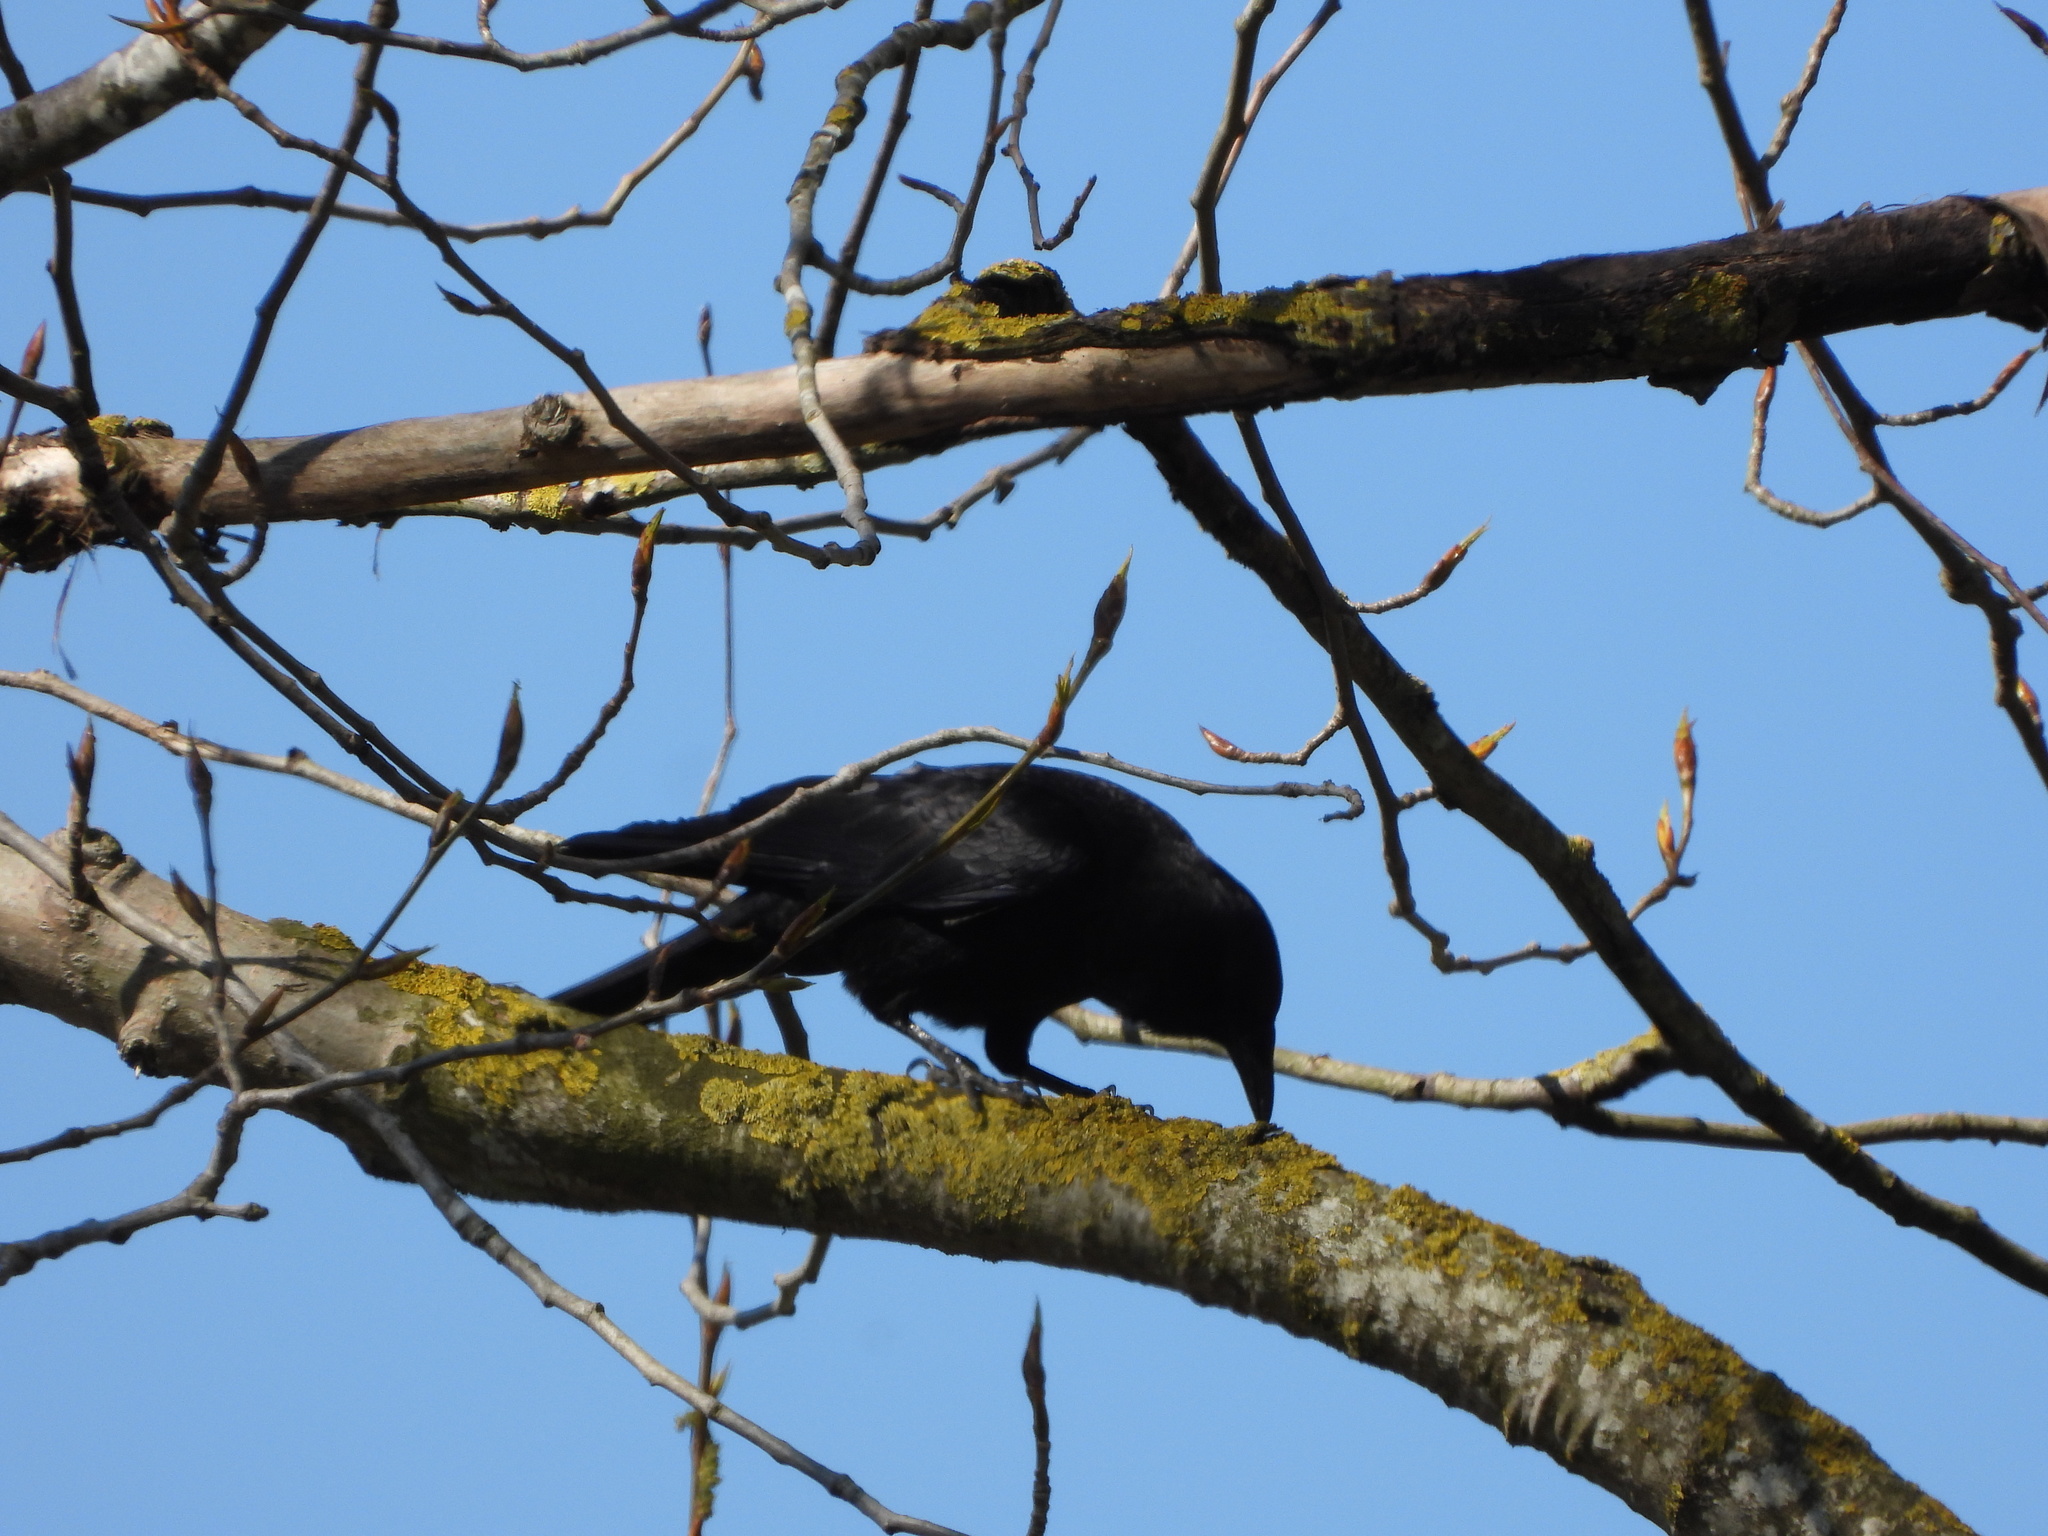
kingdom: Animalia
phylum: Chordata
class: Aves
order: Passeriformes
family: Corvidae
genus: Corvus
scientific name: Corvus brachyrhynchos
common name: American crow
